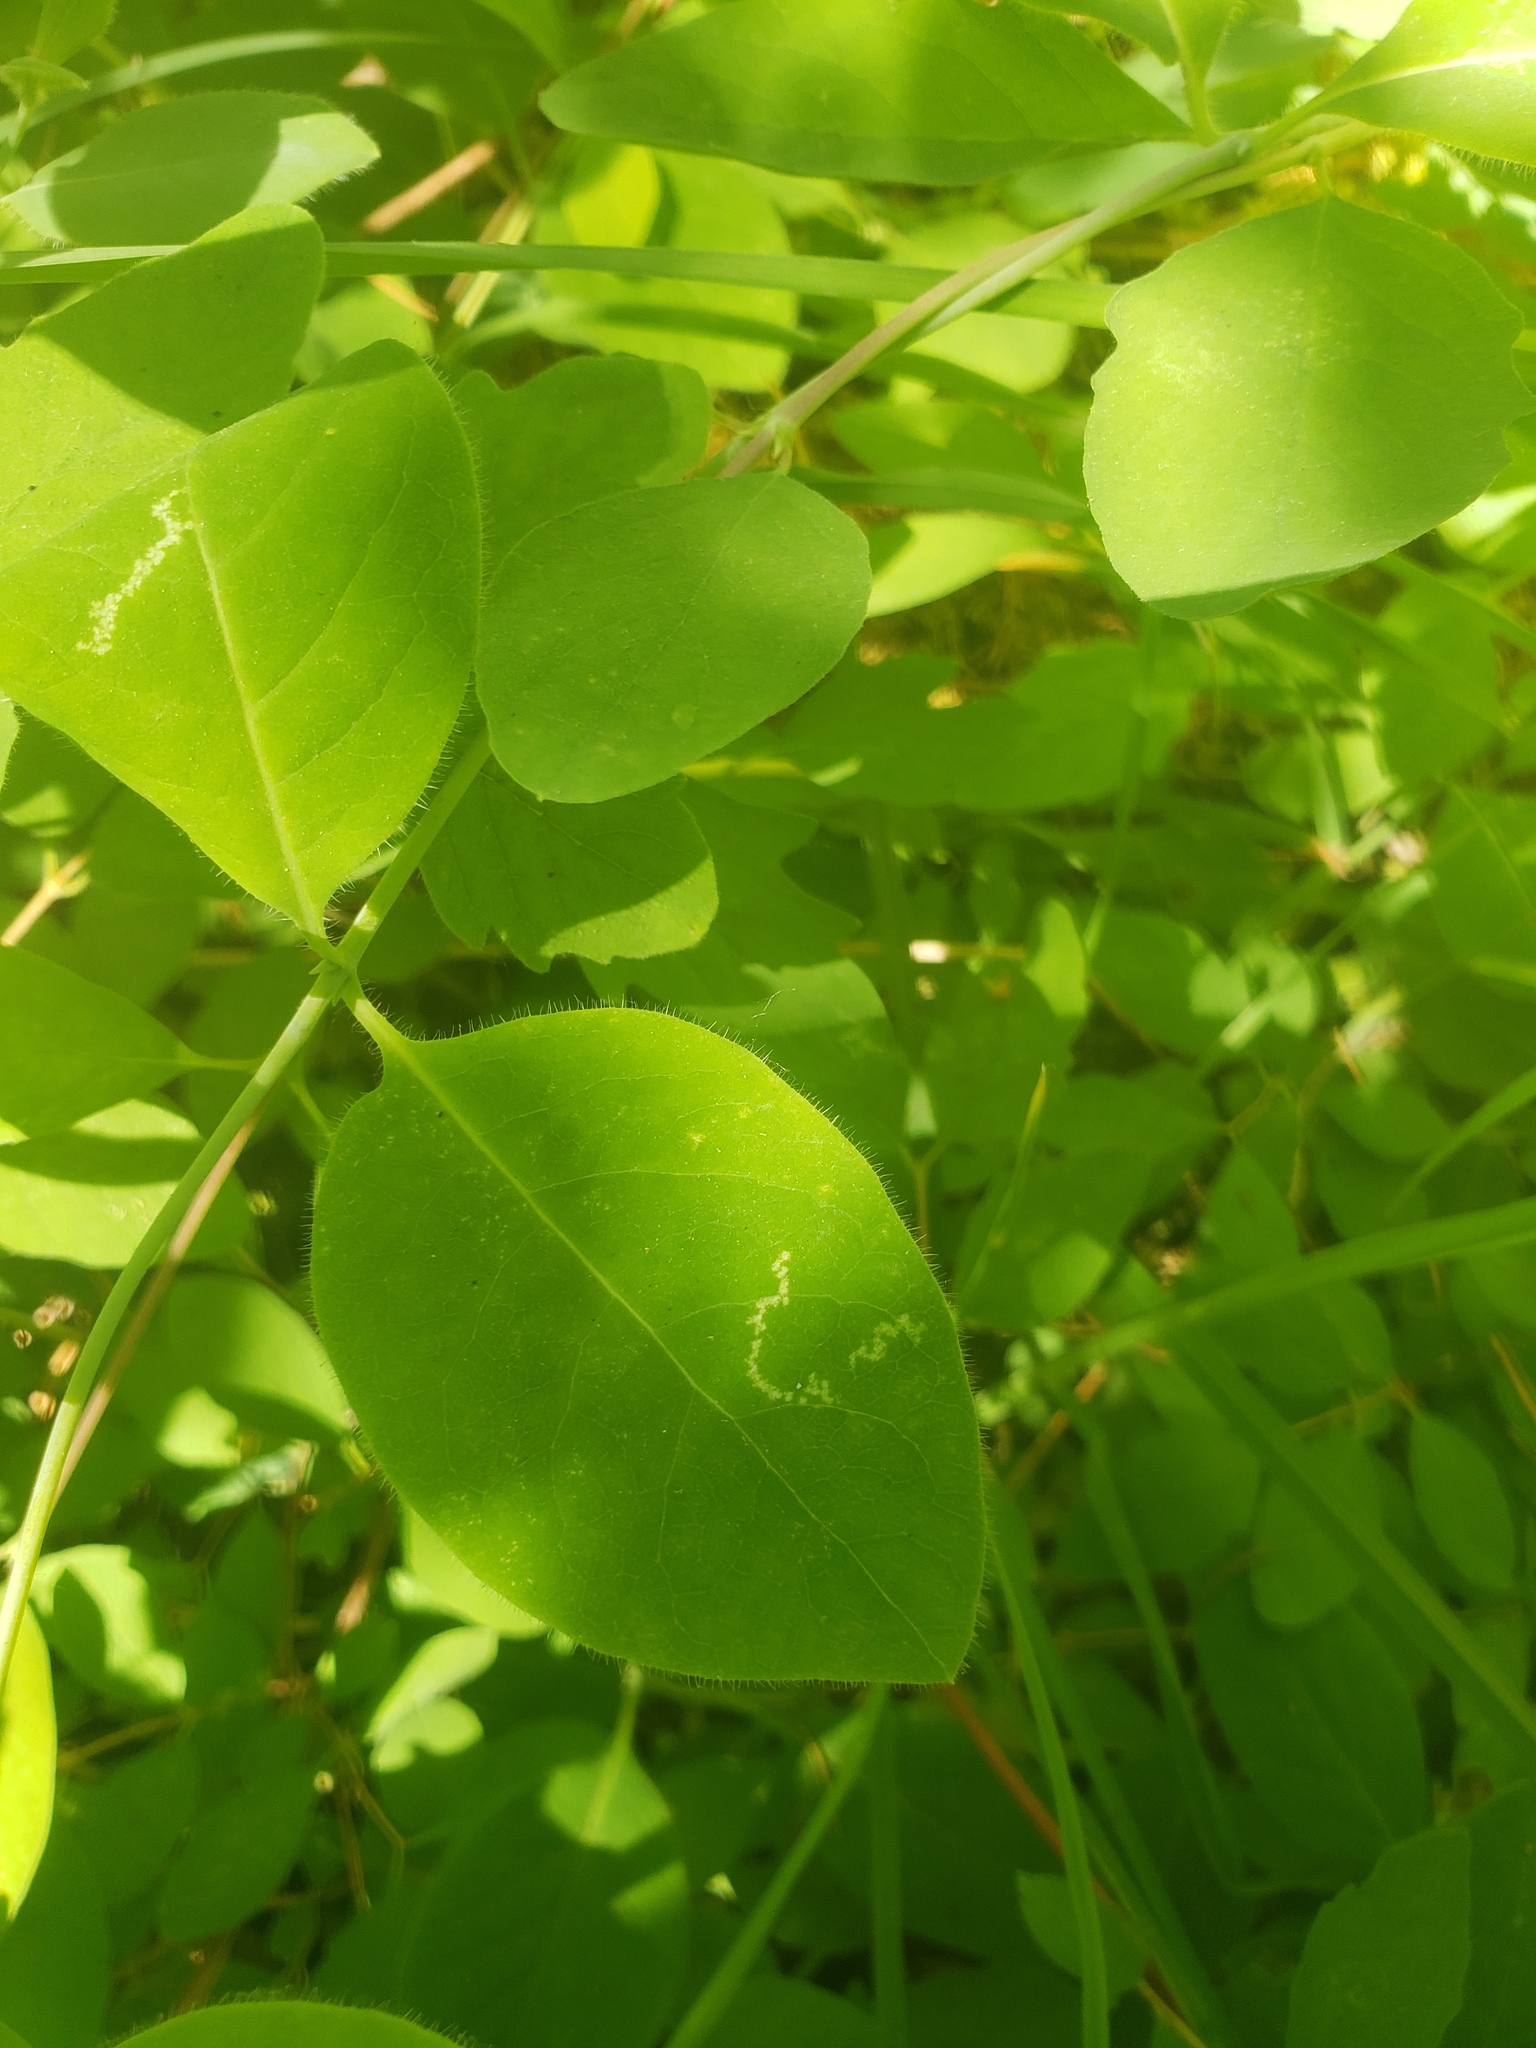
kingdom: Plantae
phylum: Tracheophyta
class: Magnoliopsida
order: Dipsacales
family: Caprifoliaceae
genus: Lonicera
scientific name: Lonicera ciliosa
